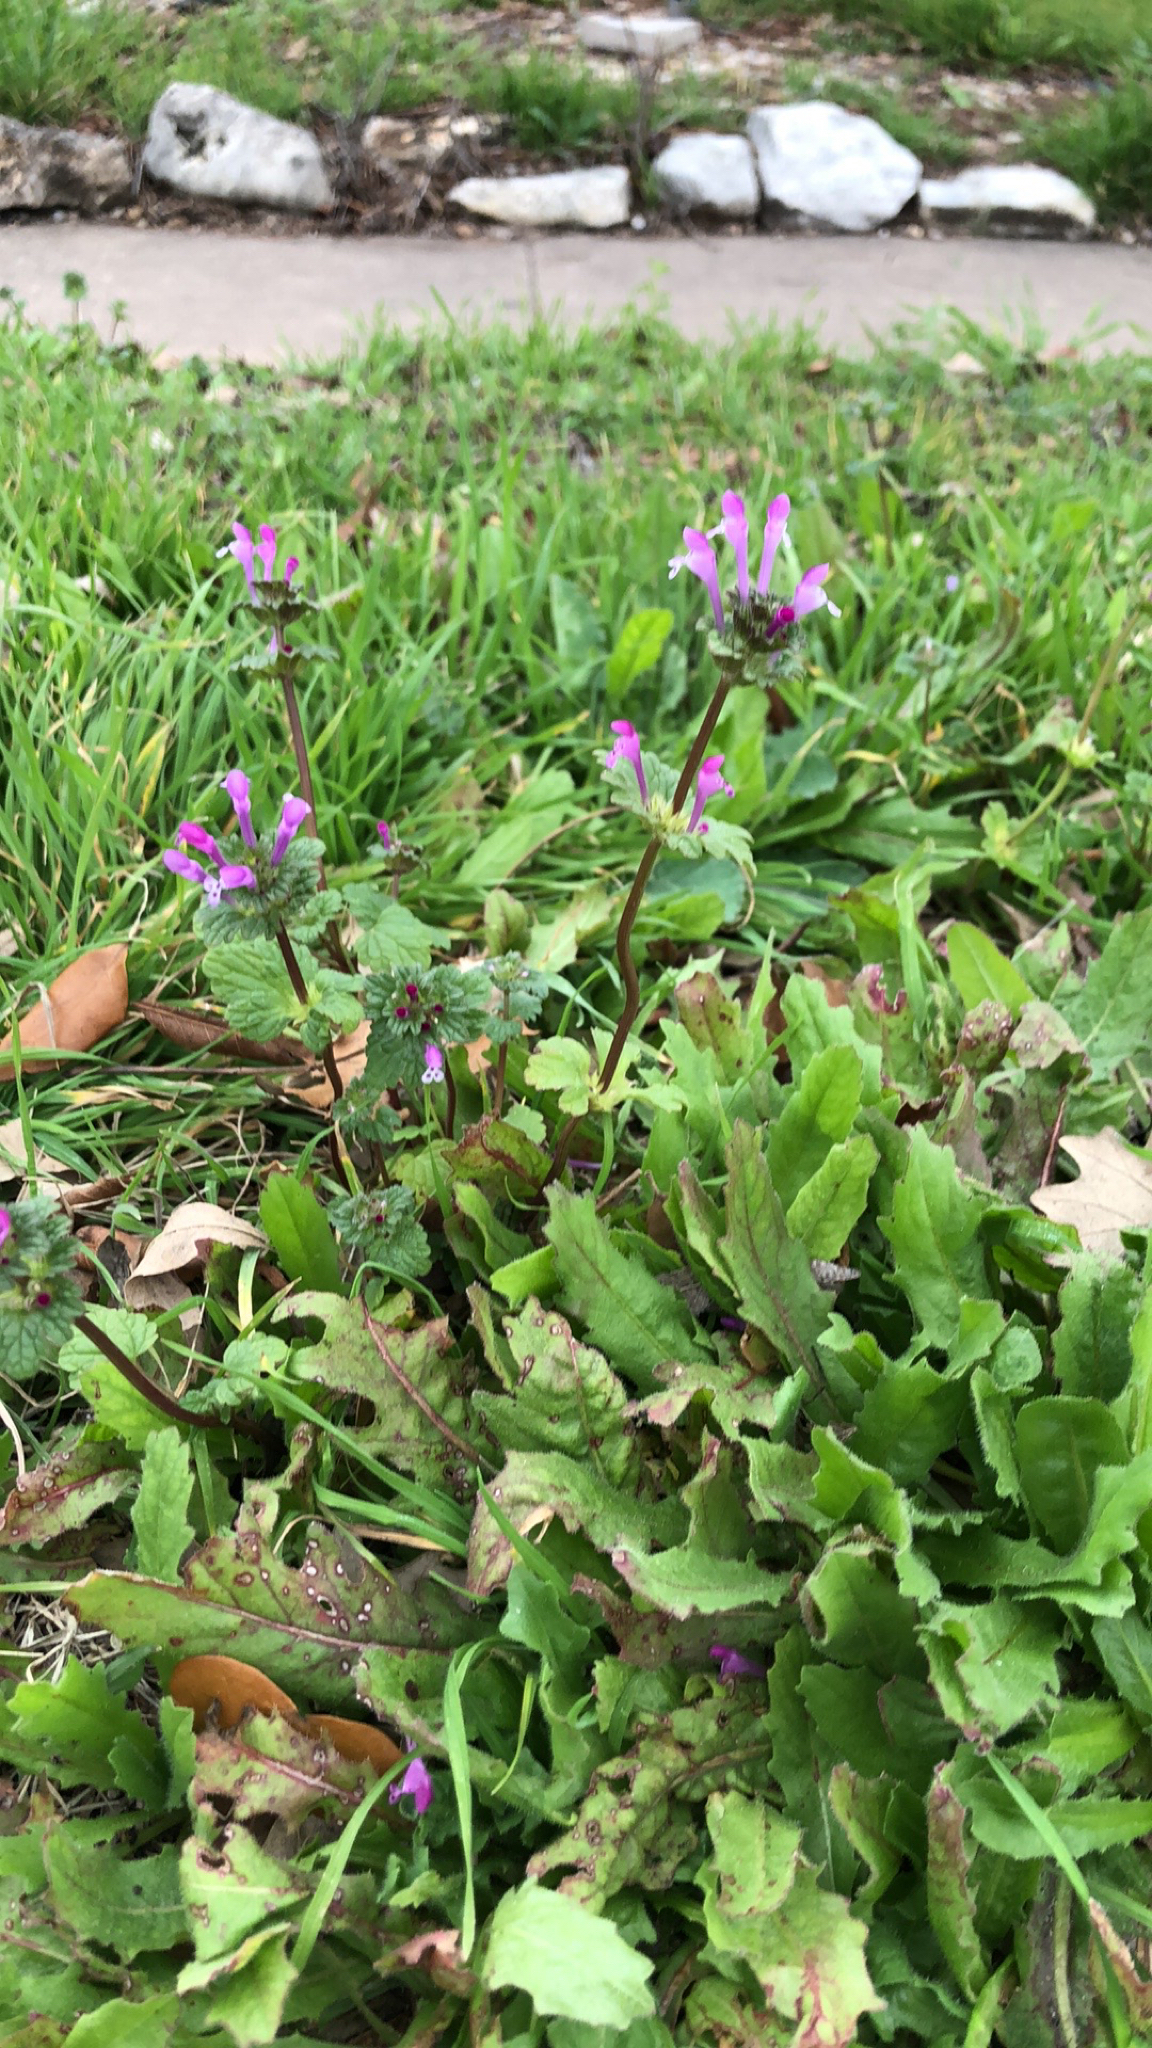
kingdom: Plantae
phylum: Tracheophyta
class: Magnoliopsida
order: Lamiales
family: Lamiaceae
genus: Lamium
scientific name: Lamium amplexicaule
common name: Henbit dead-nettle
